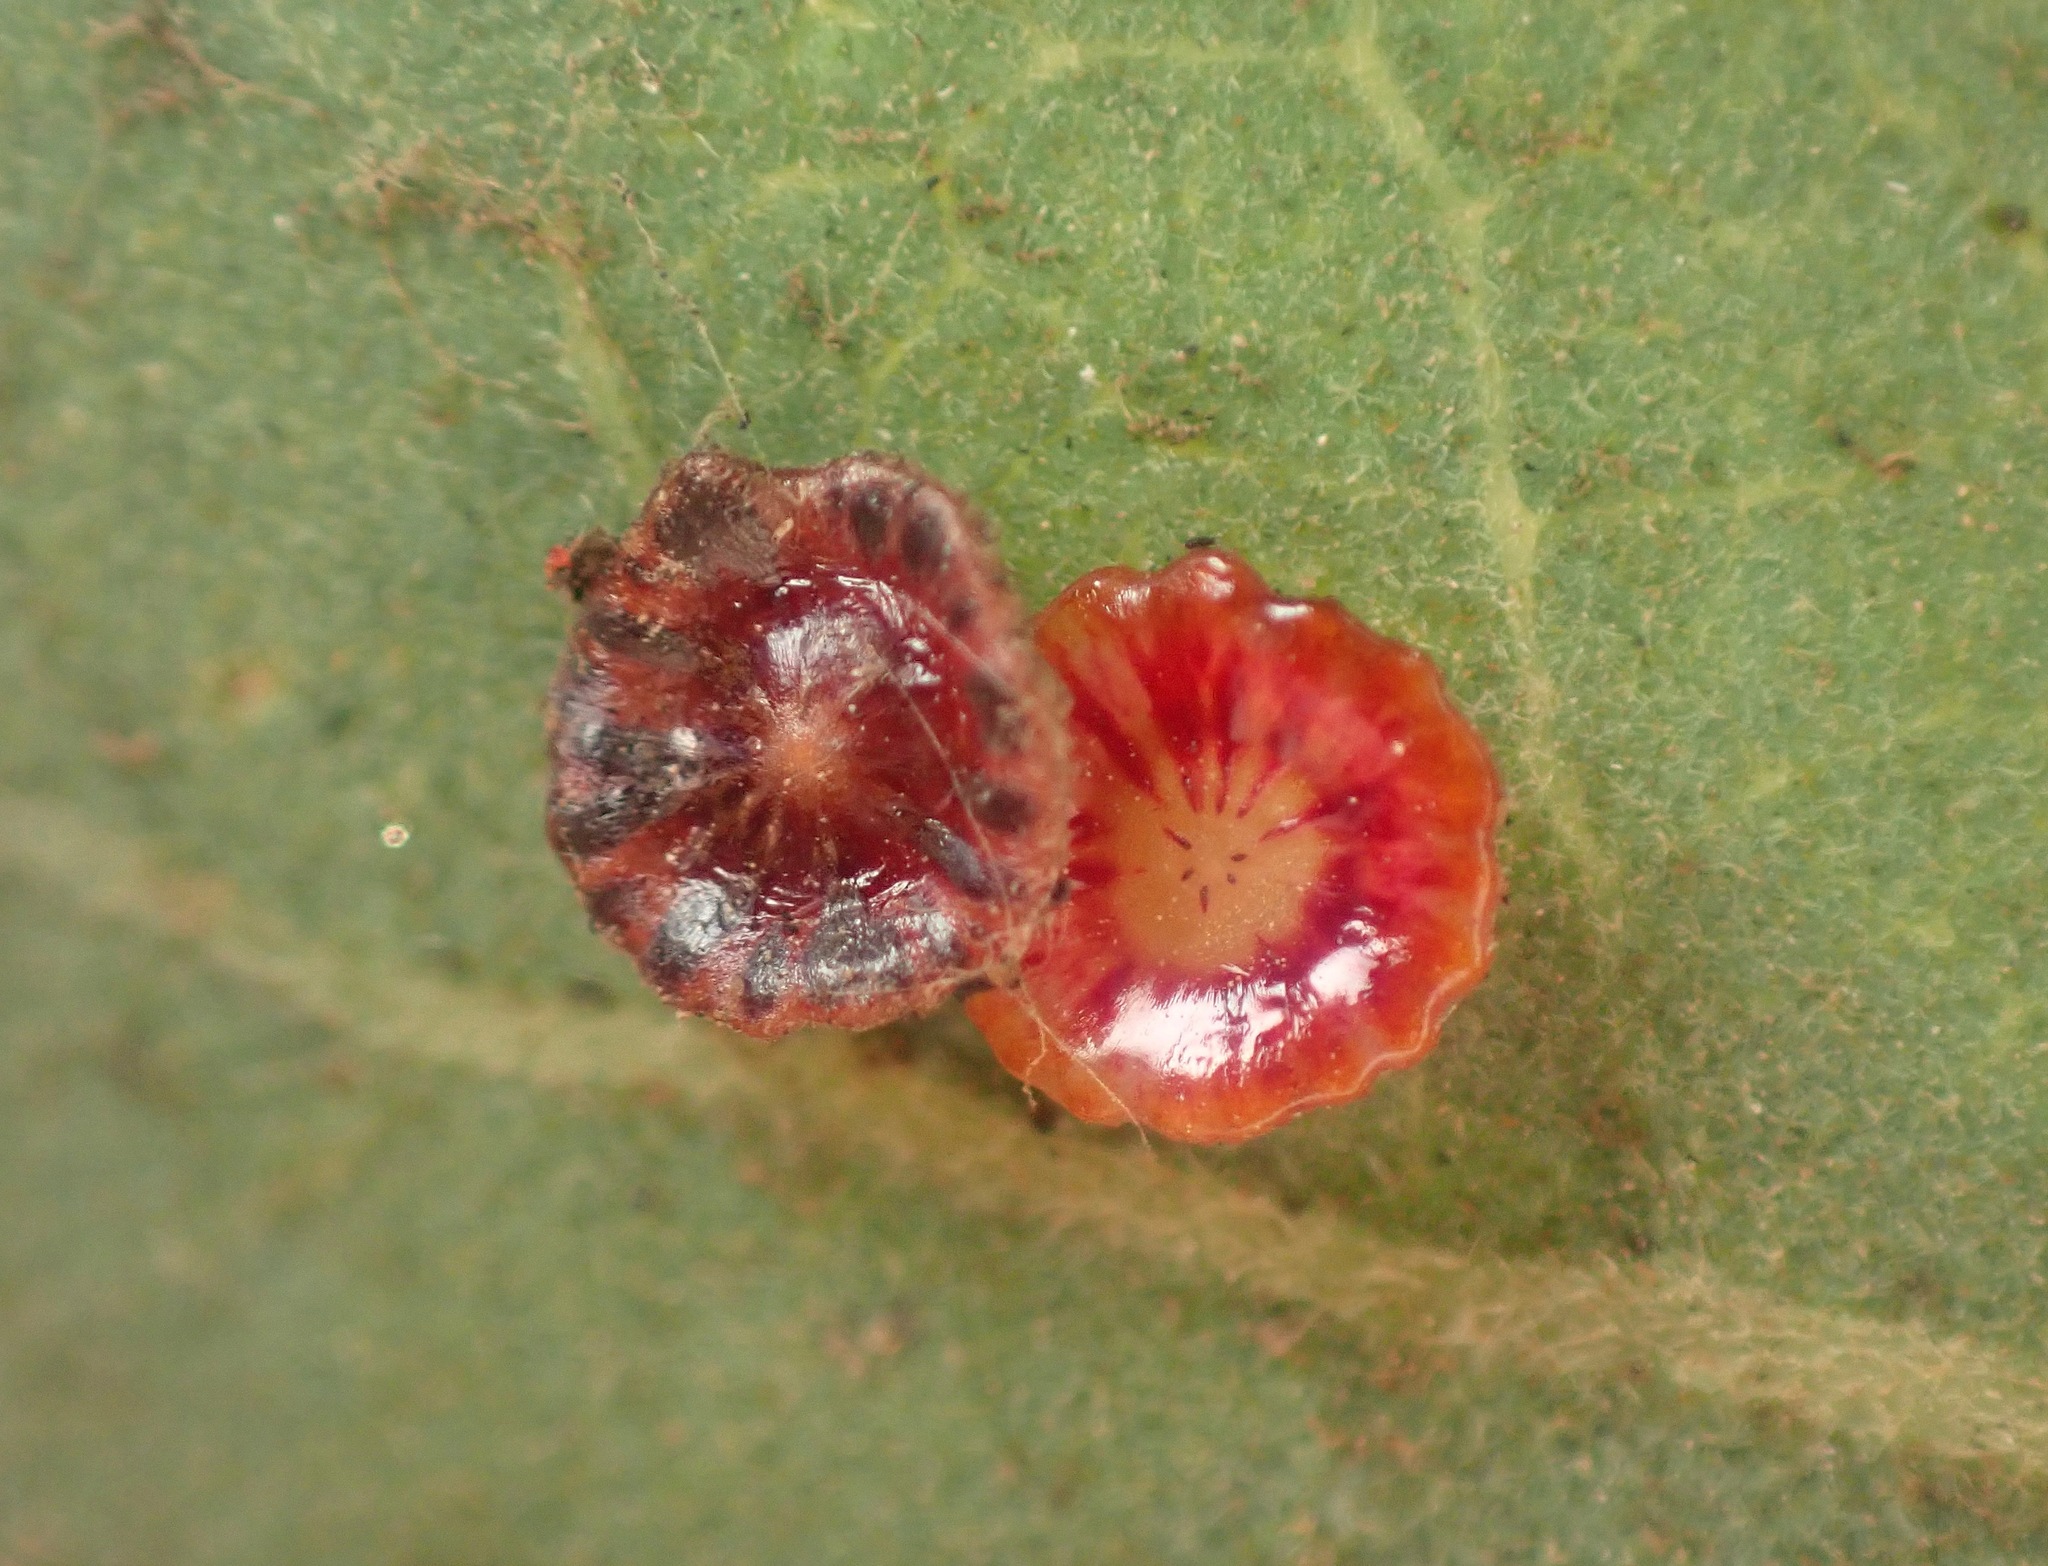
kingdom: Animalia
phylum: Arthropoda
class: Insecta
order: Hymenoptera
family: Cynipidae
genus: Andricus
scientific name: Andricus
